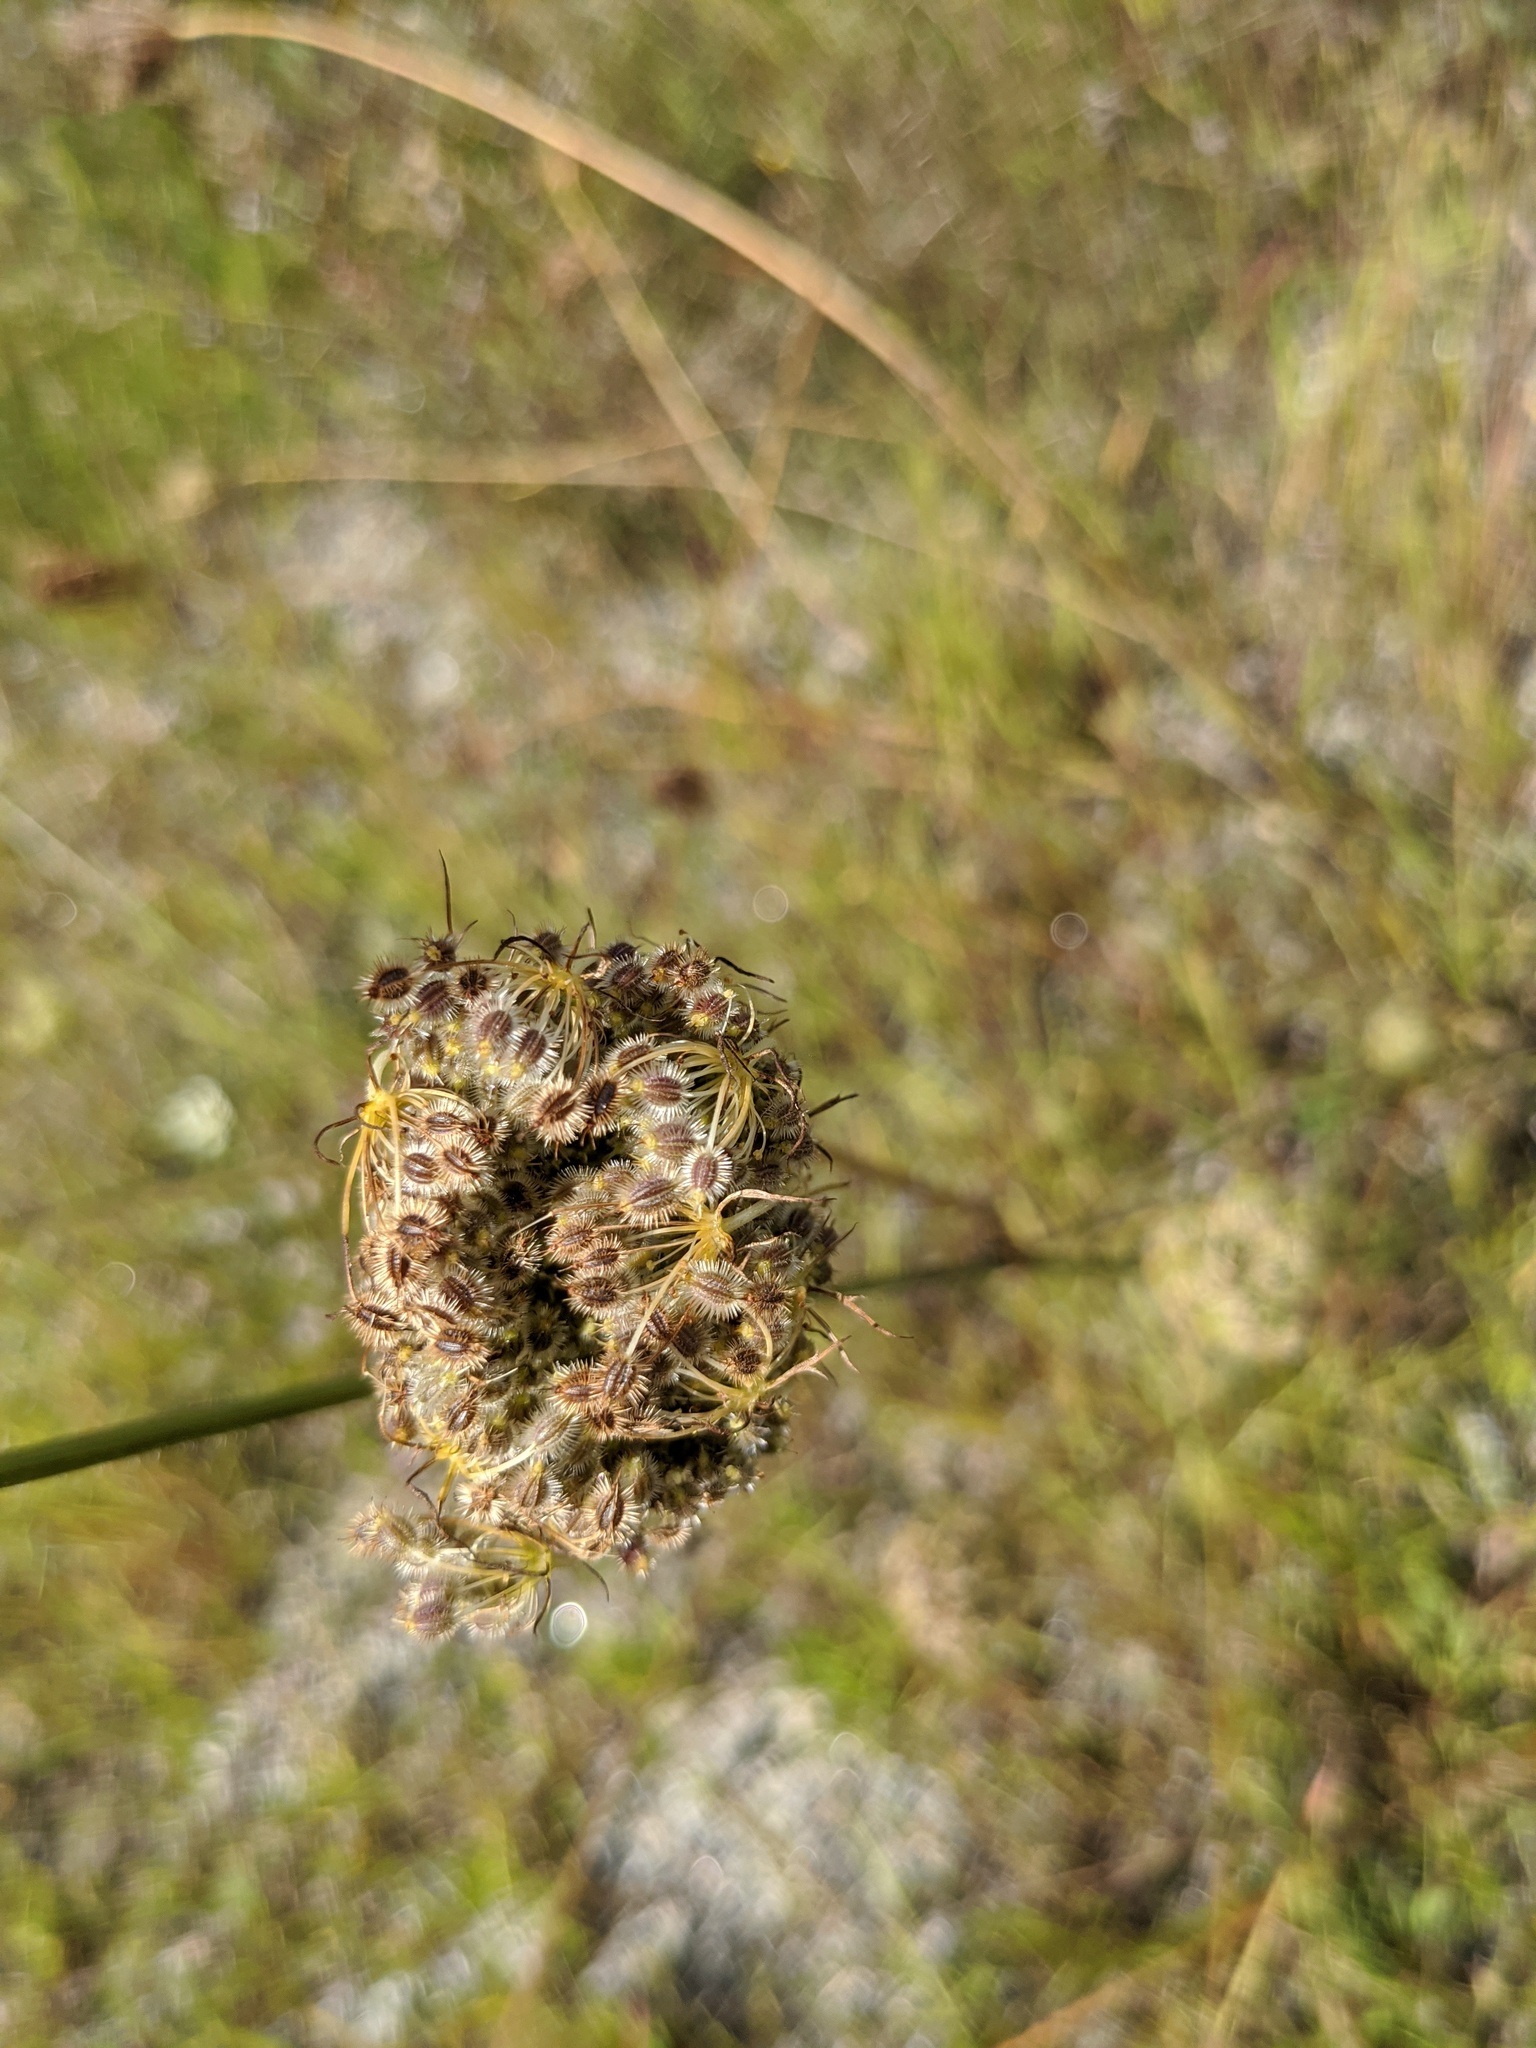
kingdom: Plantae
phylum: Tracheophyta
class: Magnoliopsida
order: Apiales
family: Apiaceae
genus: Daucus
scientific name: Daucus carota
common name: Wild carrot
